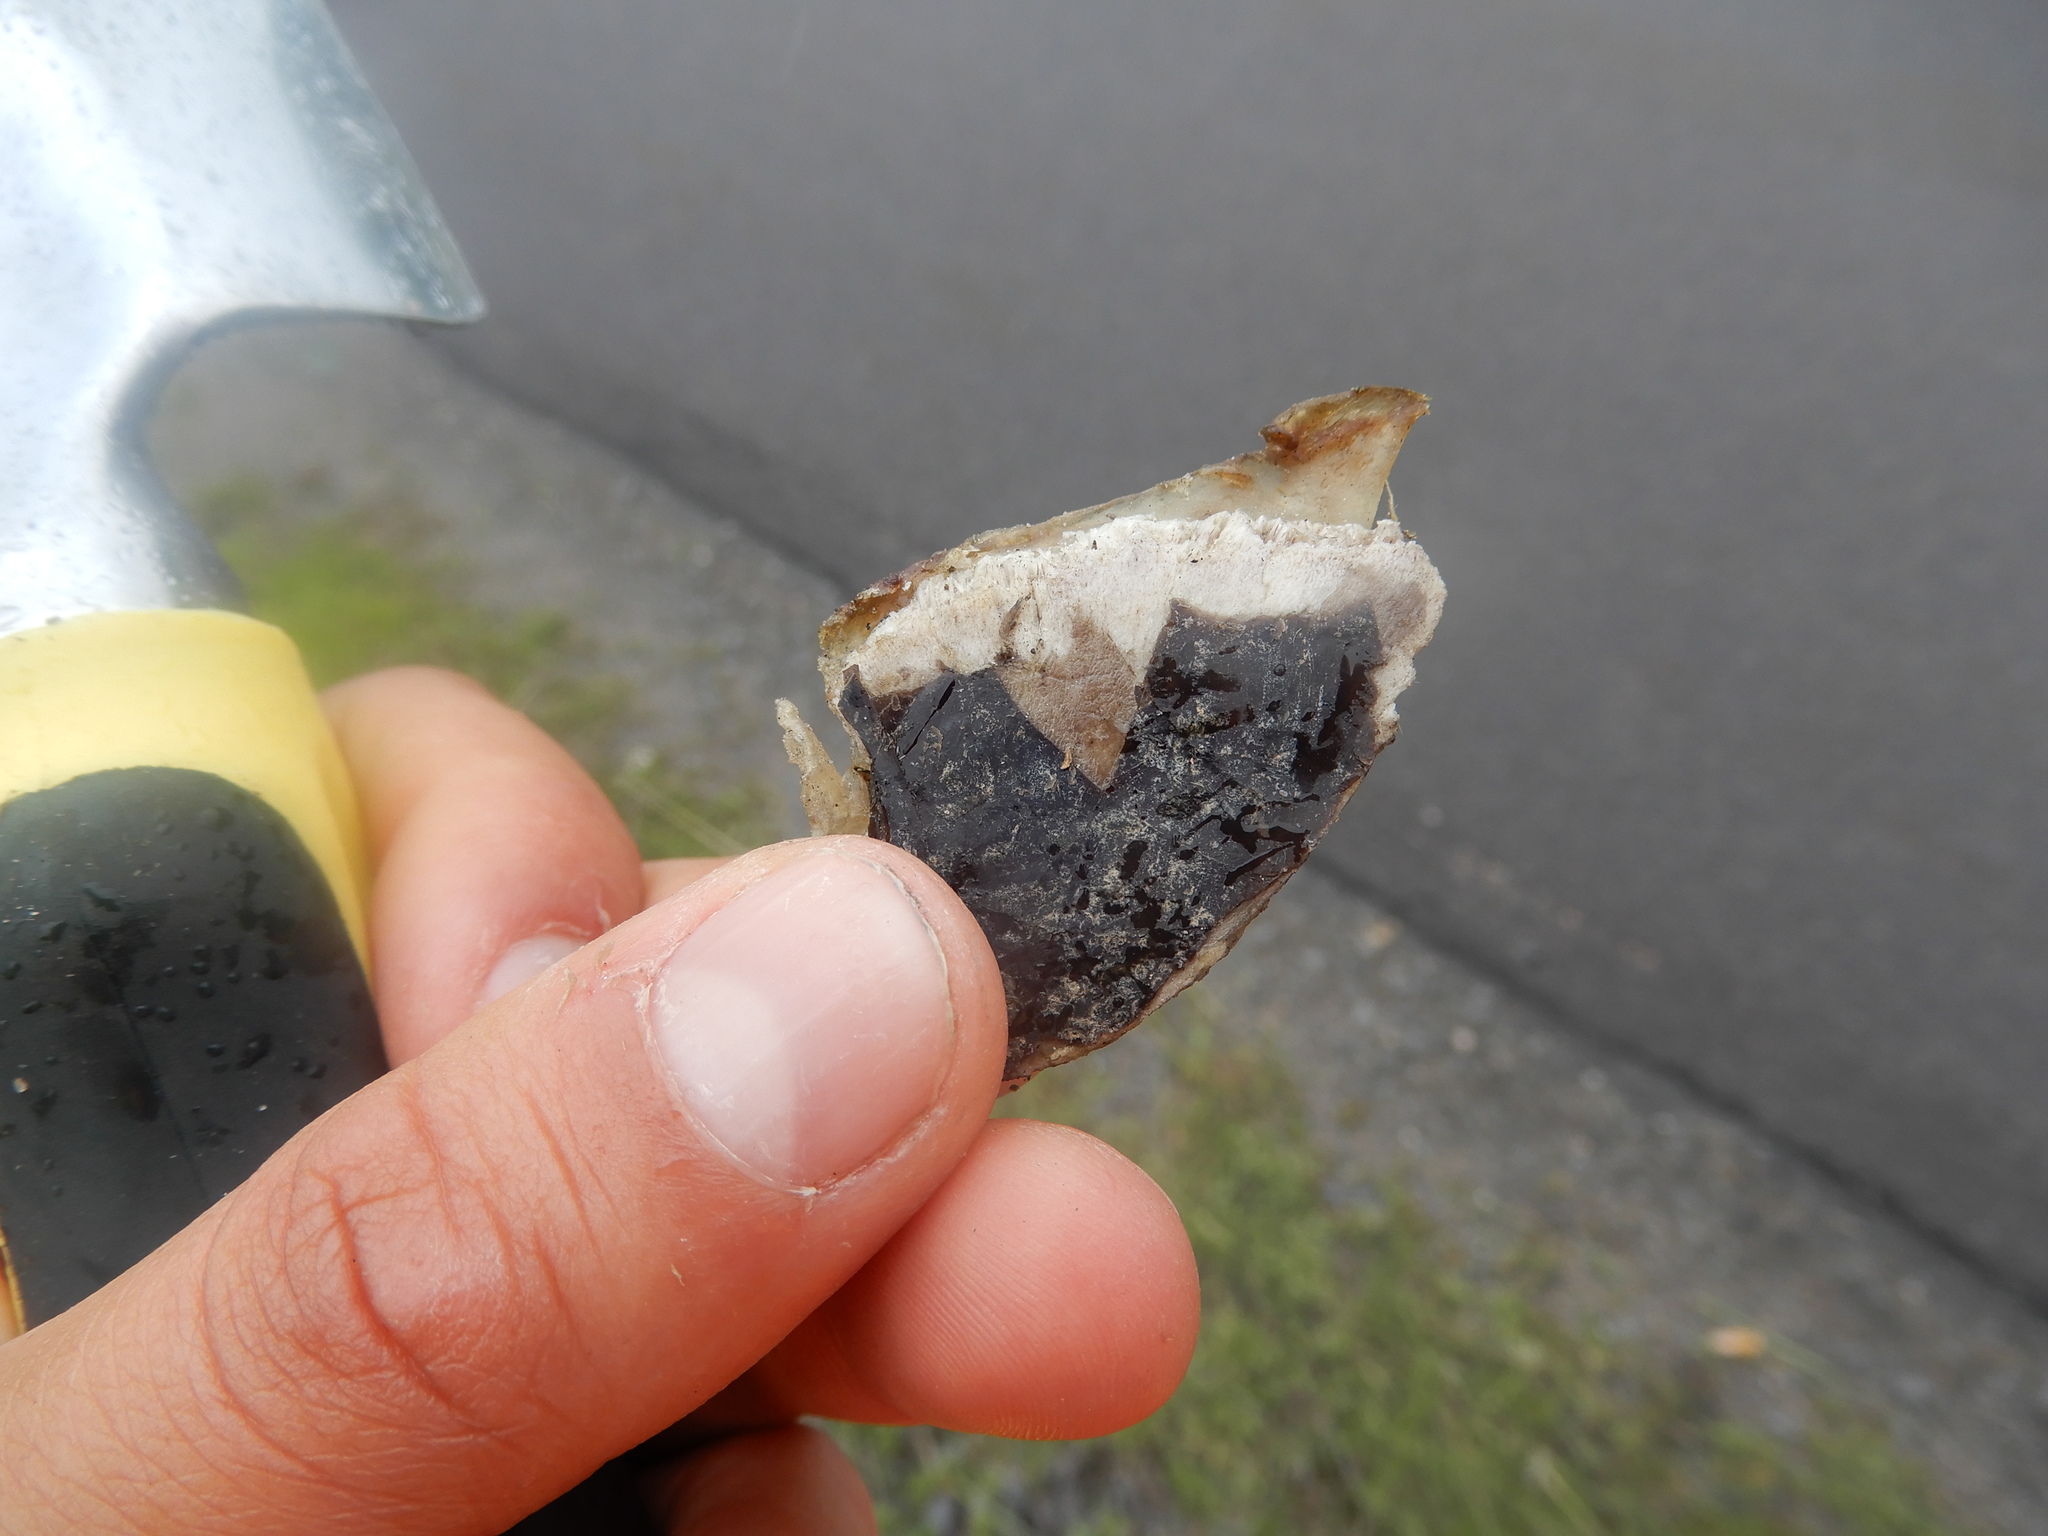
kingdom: Animalia
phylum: Chordata
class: Testudines
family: Chelydridae
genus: Chelydra
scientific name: Chelydra serpentina
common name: Common snapping turtle
